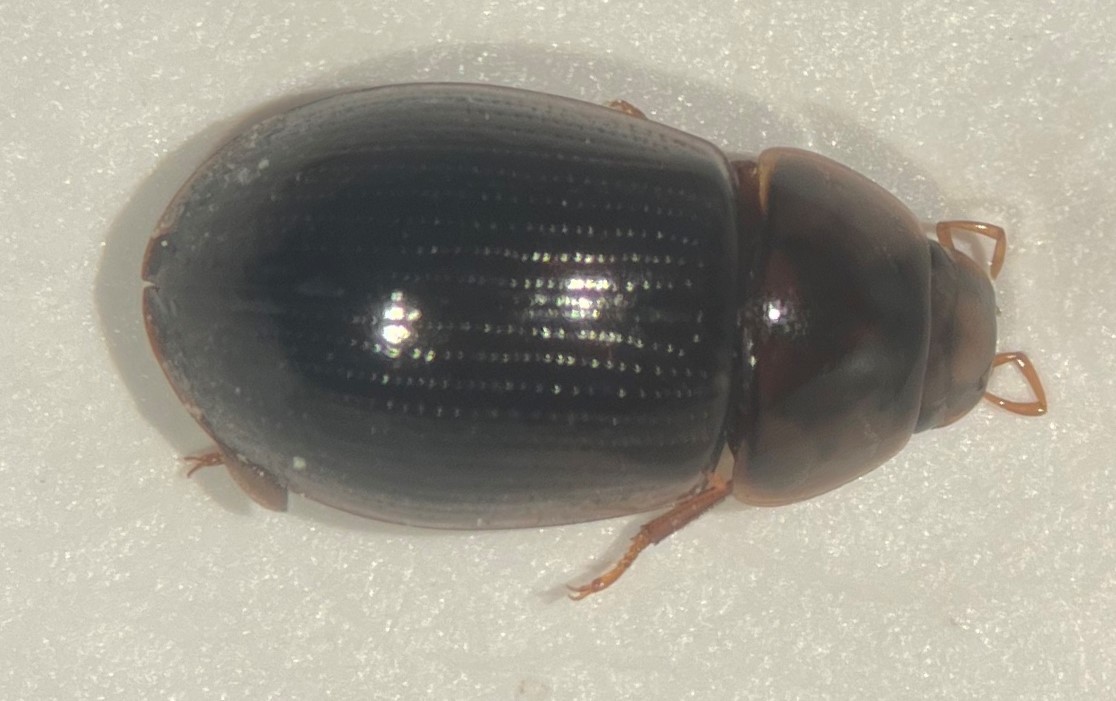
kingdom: Animalia
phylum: Arthropoda
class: Insecta
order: Coleoptera
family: Hydrophilidae
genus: Helochares
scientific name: Helochares normatus
